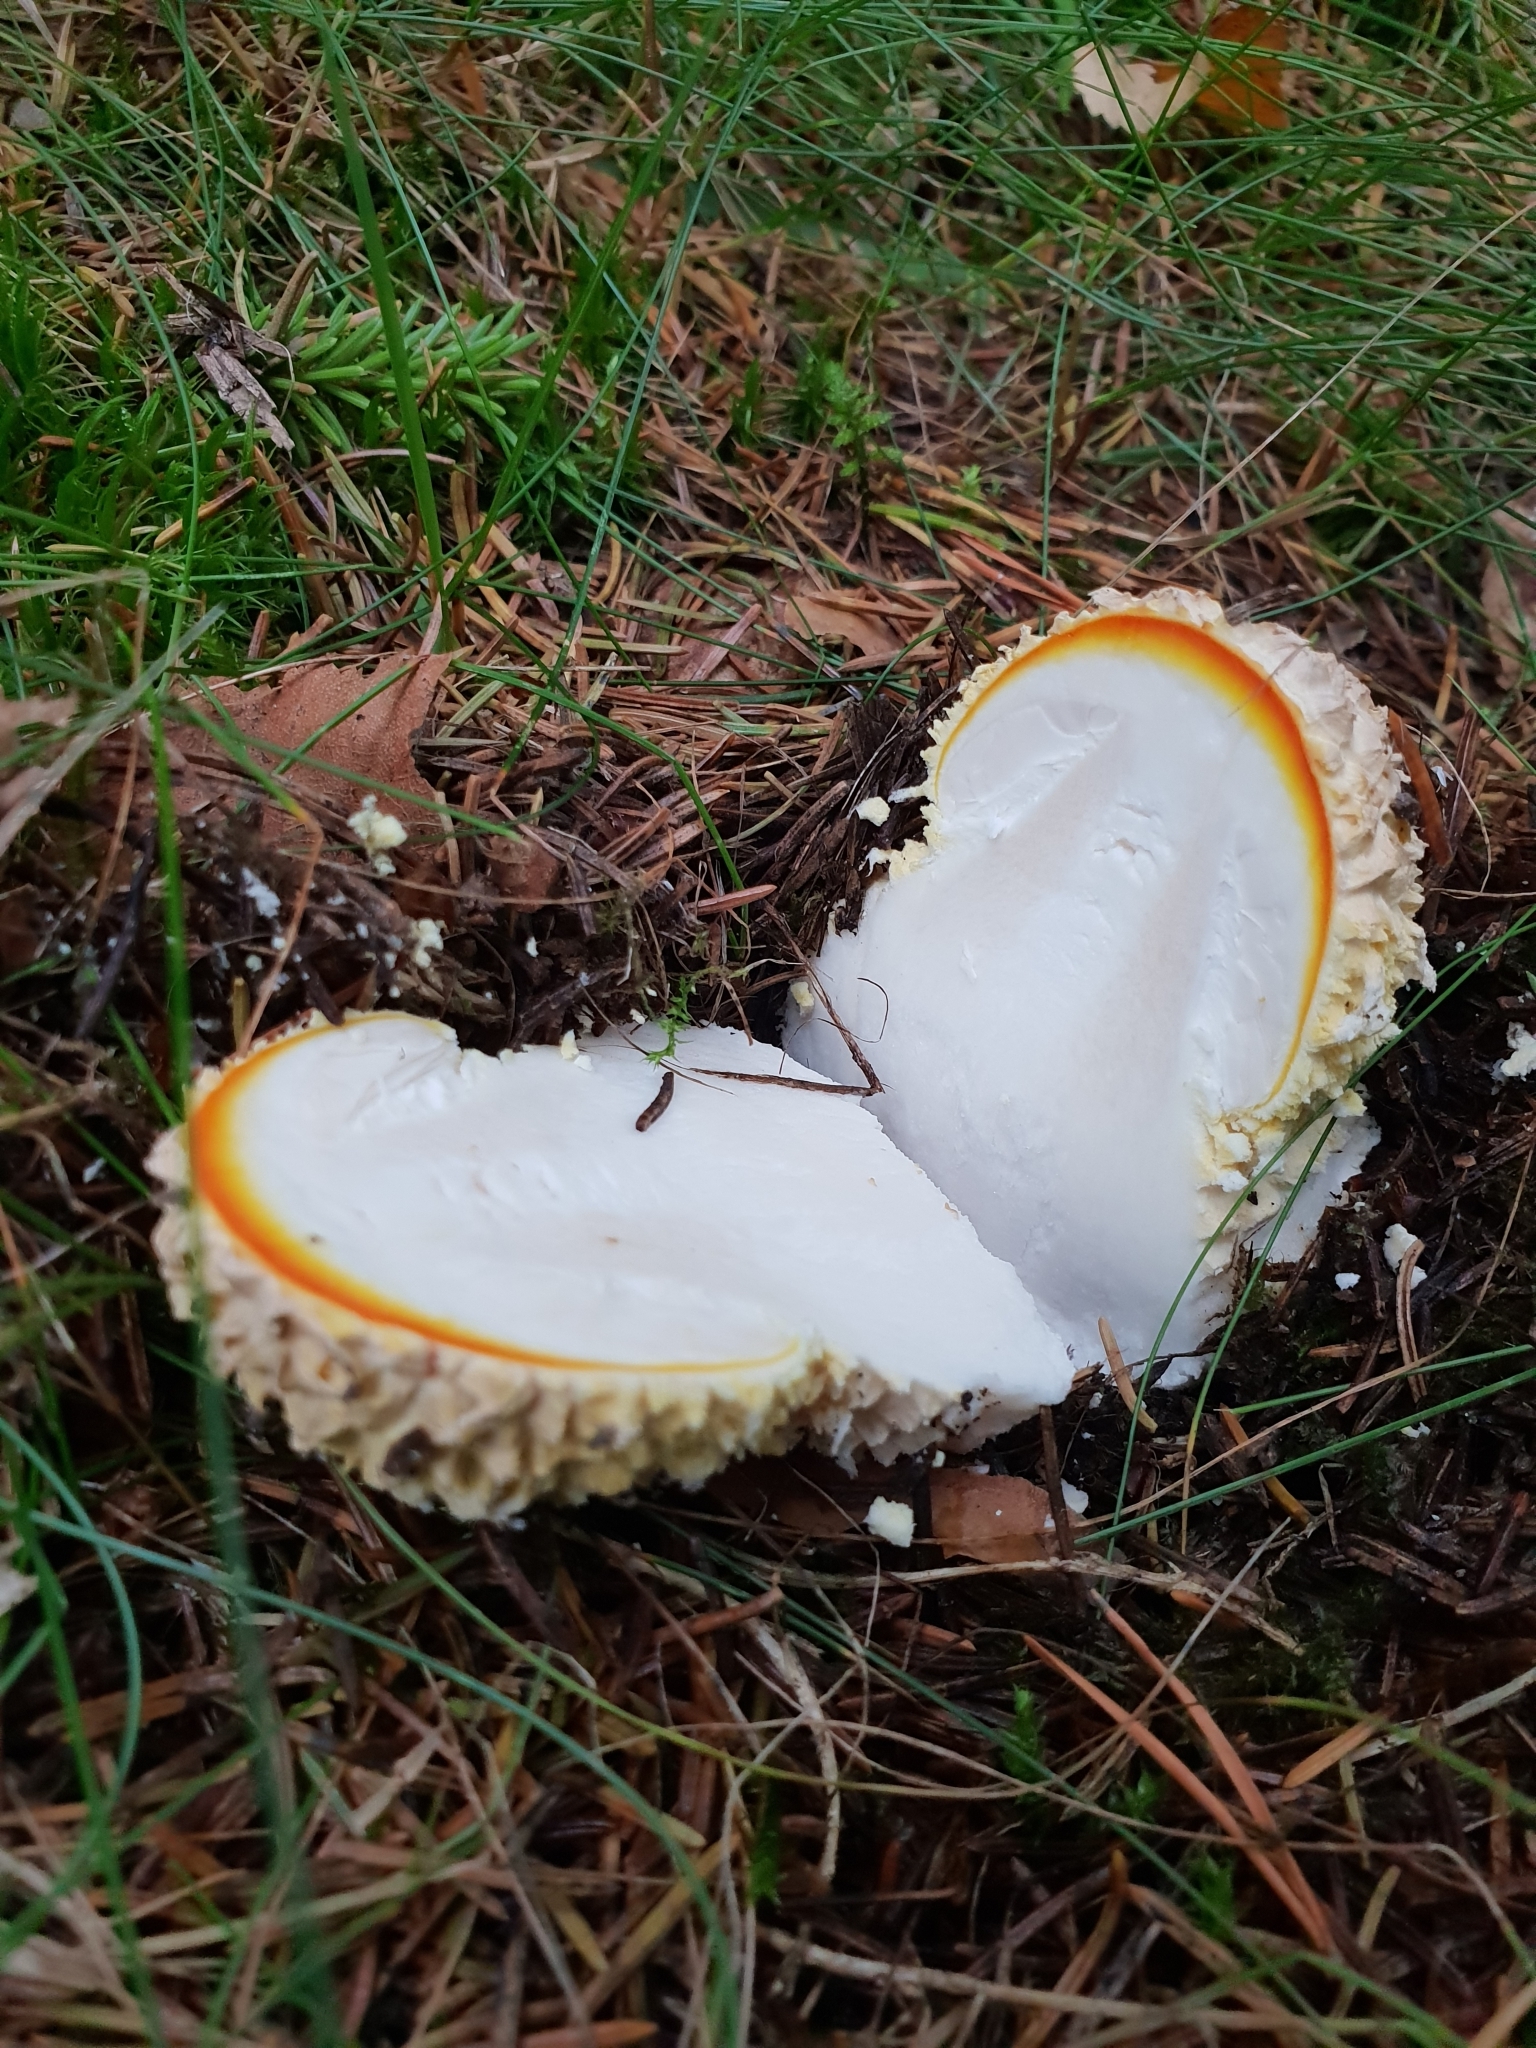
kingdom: Fungi
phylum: Basidiomycota
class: Agaricomycetes
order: Agaricales
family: Amanitaceae
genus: Amanita
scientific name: Amanita muscaria
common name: Fly agaric
